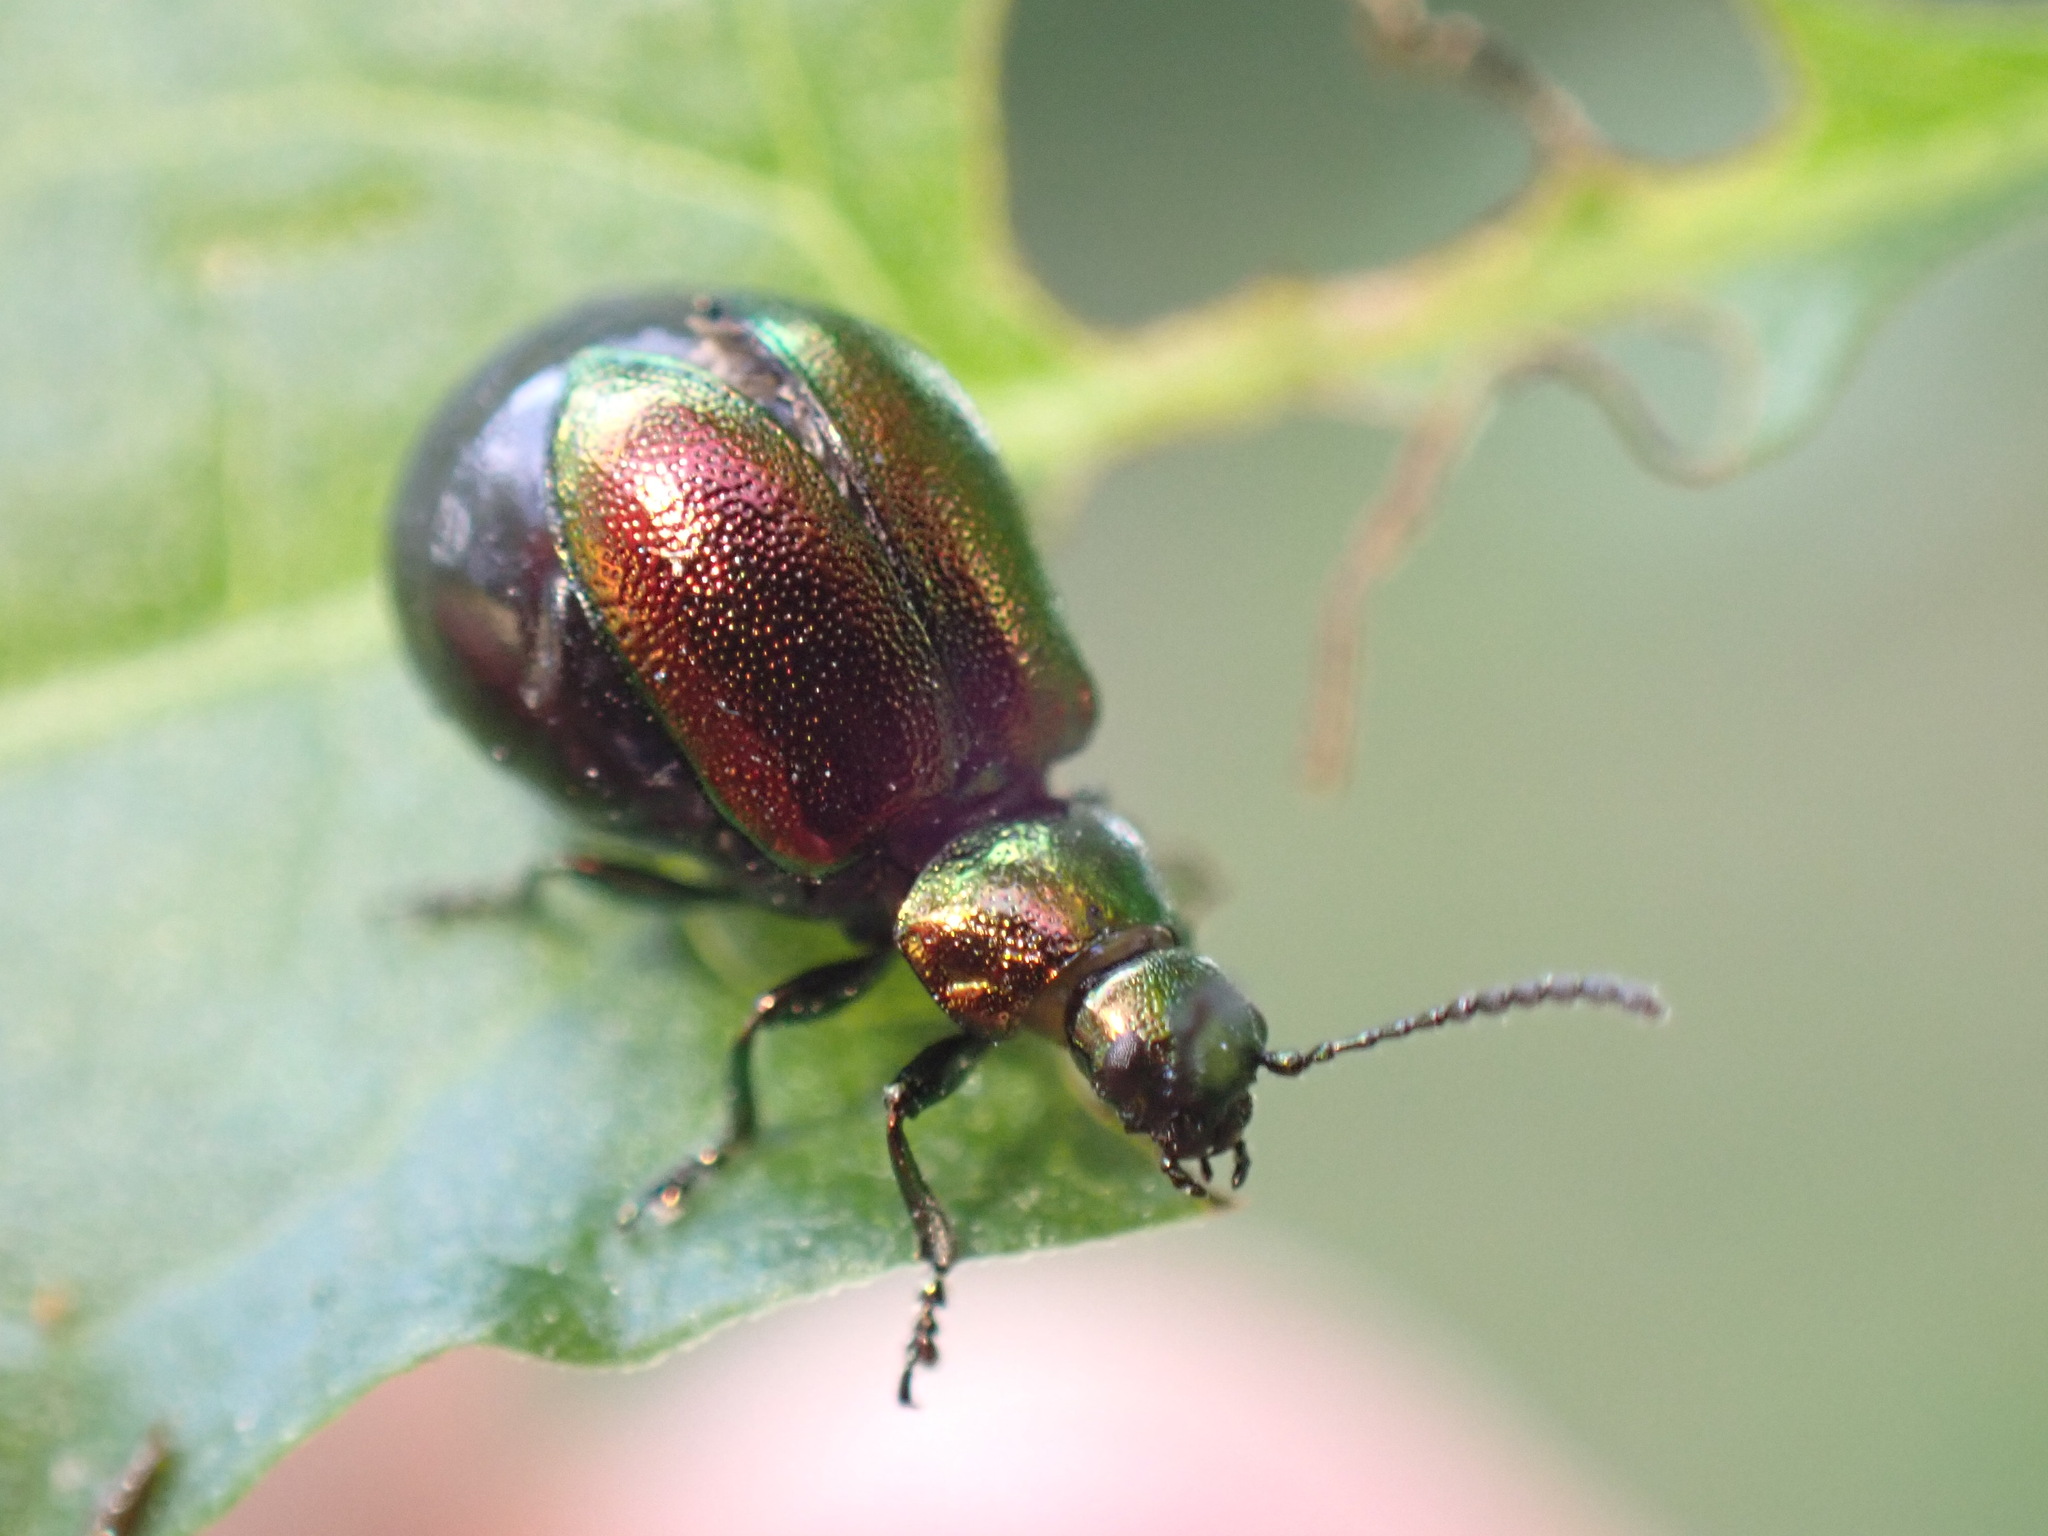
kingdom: Animalia
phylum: Arthropoda
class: Insecta
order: Coleoptera
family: Chrysomelidae
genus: Gastrophysa
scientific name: Gastrophysa viridula
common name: Green dock beetle
